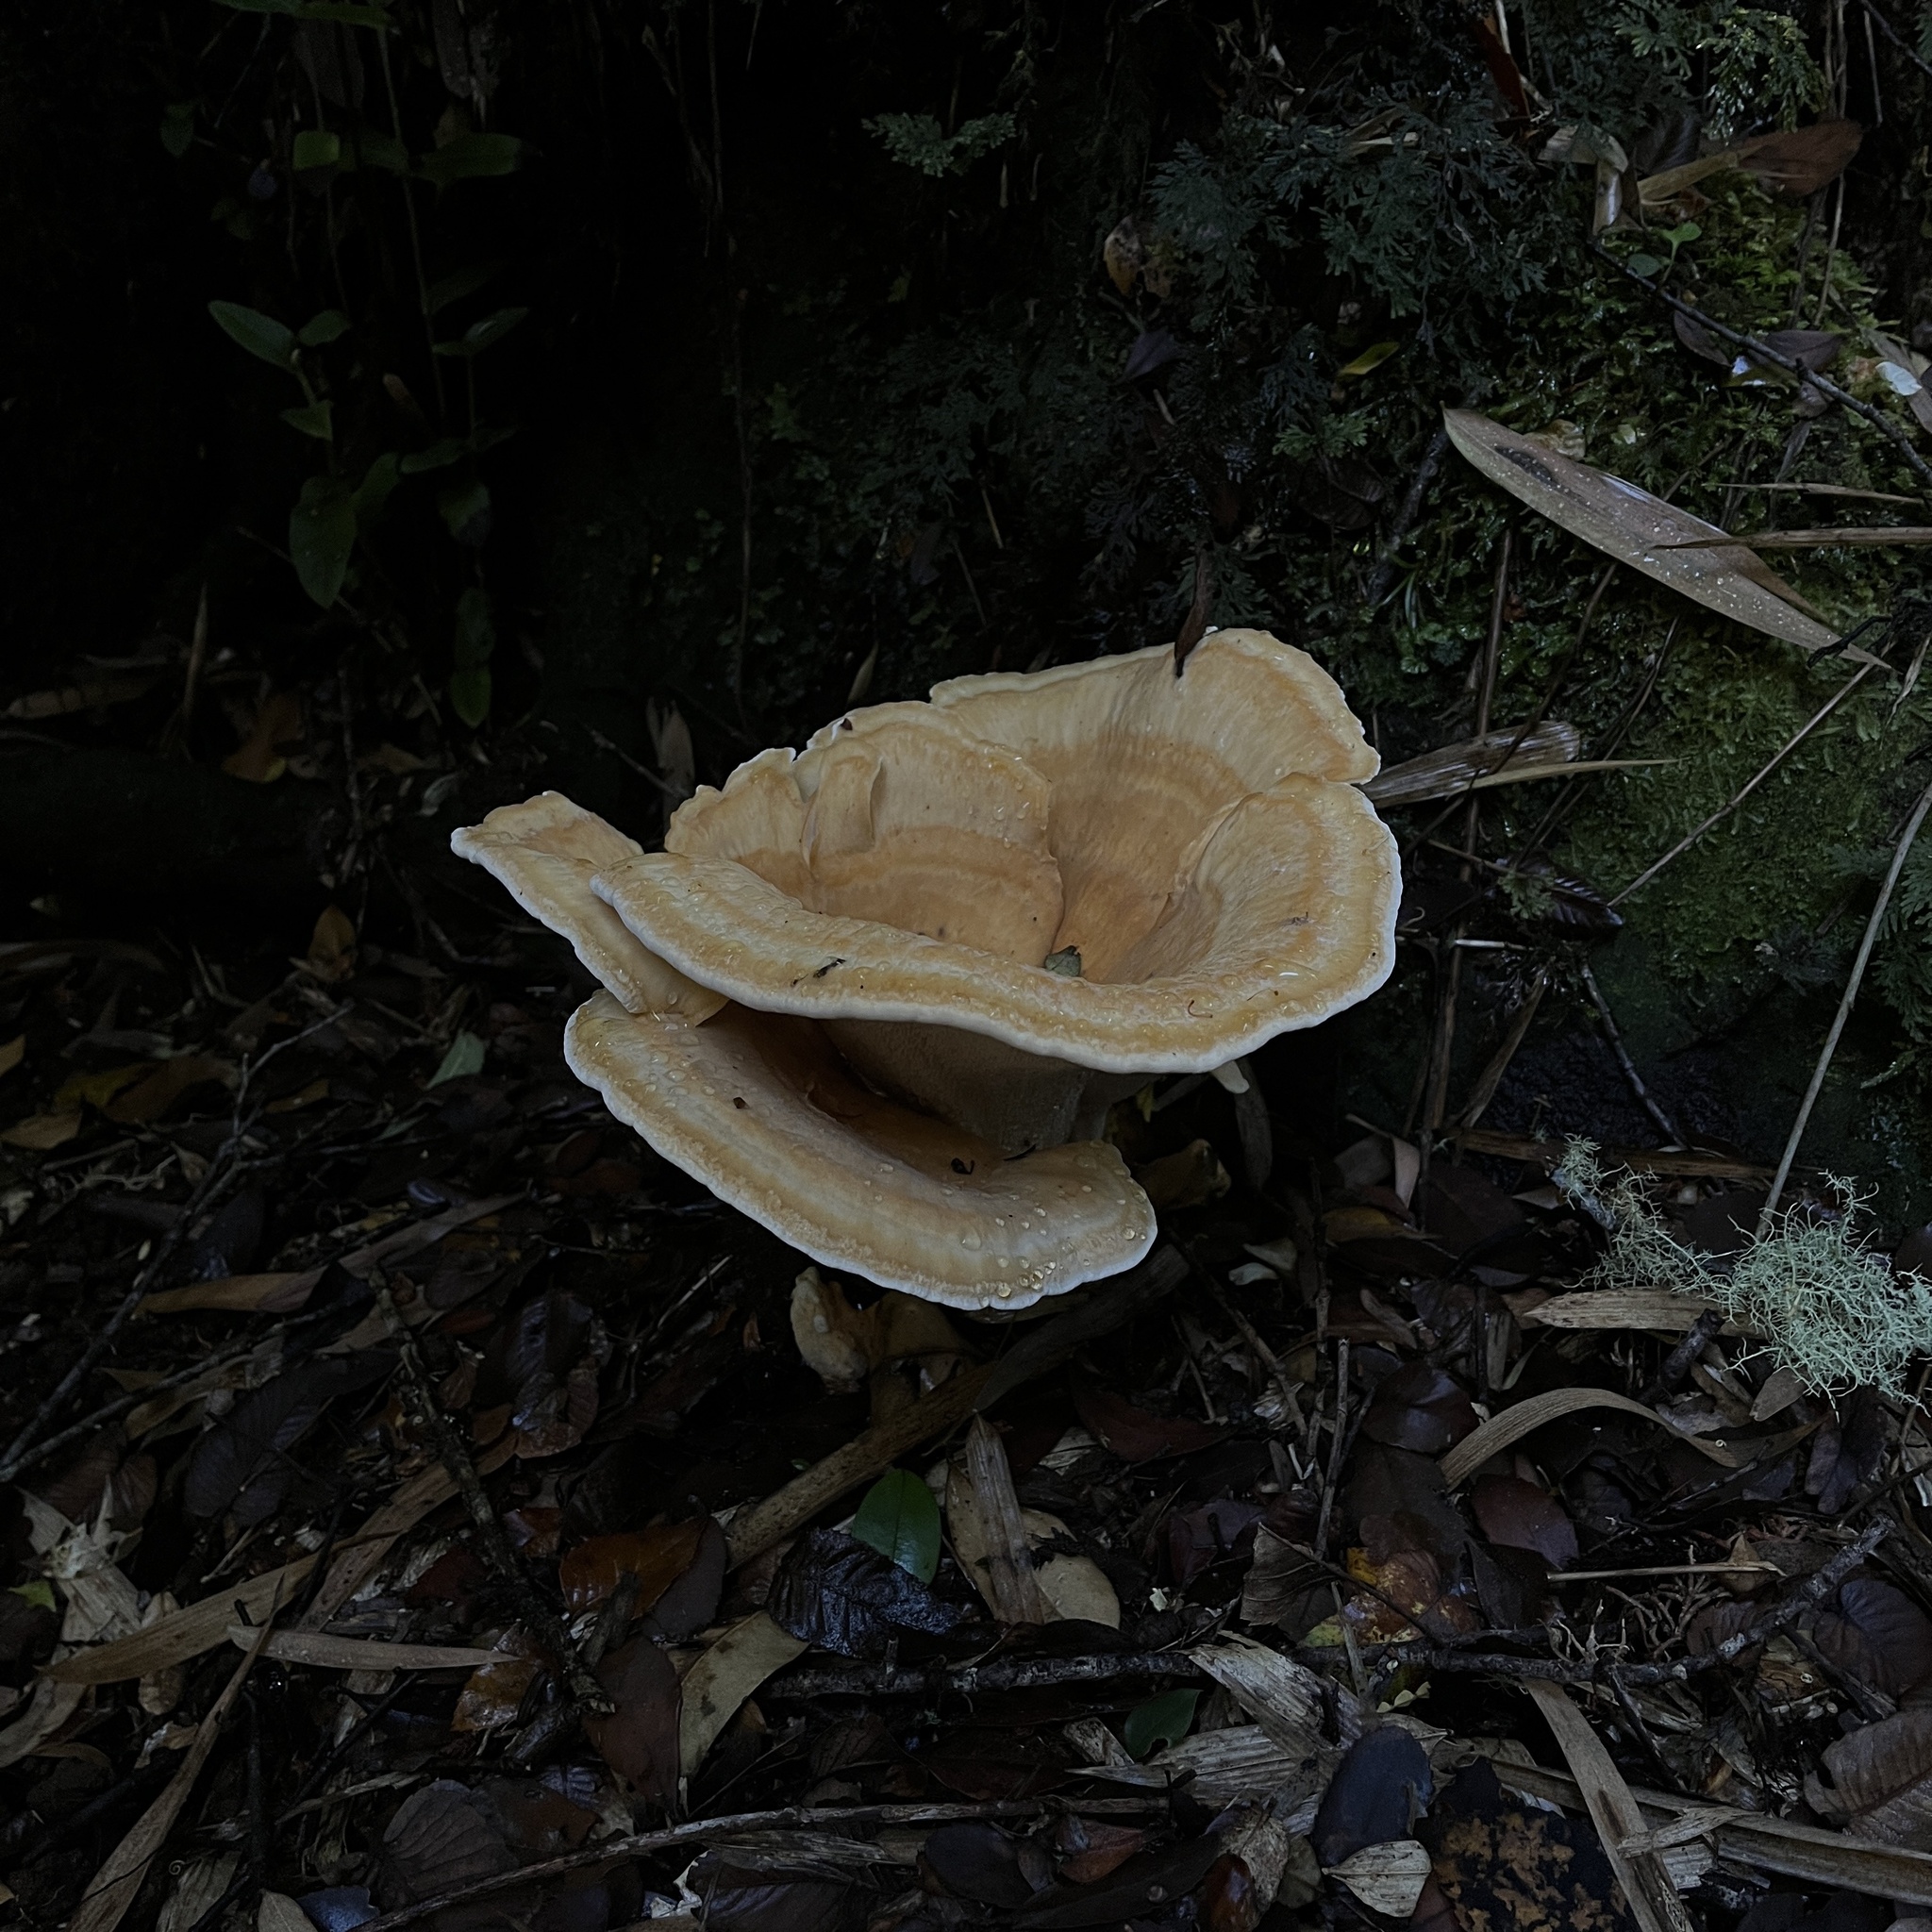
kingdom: Fungi
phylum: Basidiomycota
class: Agaricomycetes
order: Russulales
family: Bondarzewiaceae
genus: Bondarzewia
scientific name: Bondarzewia guaitecasensis
